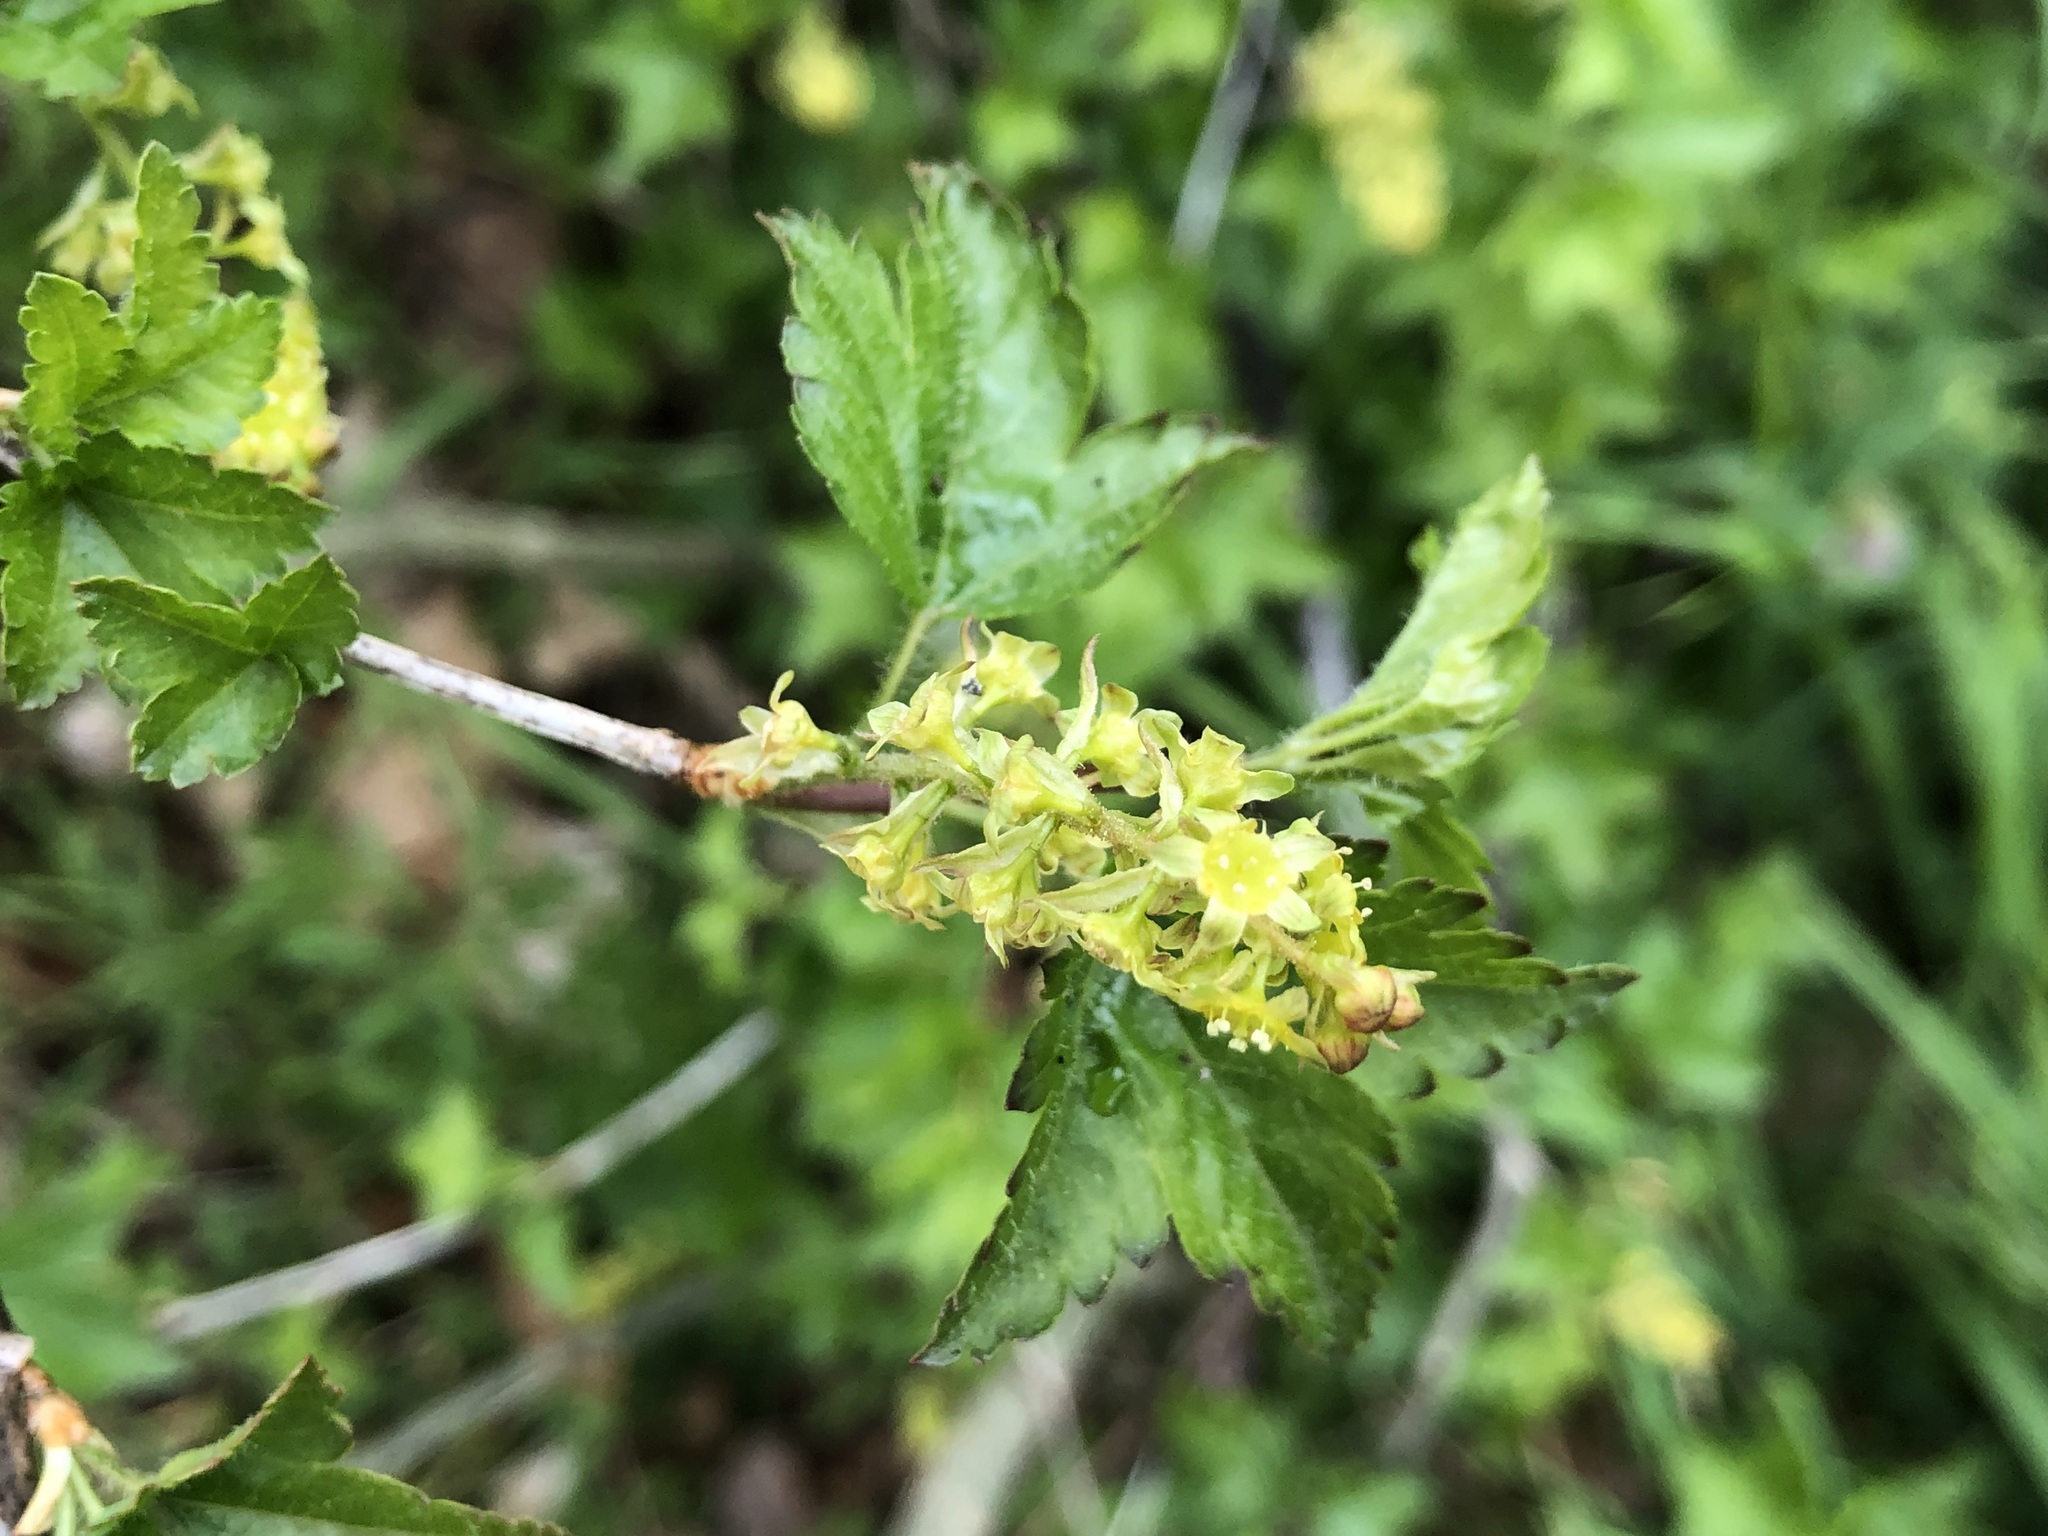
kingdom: Plantae
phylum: Tracheophyta
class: Magnoliopsida
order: Saxifragales
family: Grossulariaceae
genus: Ribes
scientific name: Ribes alpinum
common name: Alpine currant
